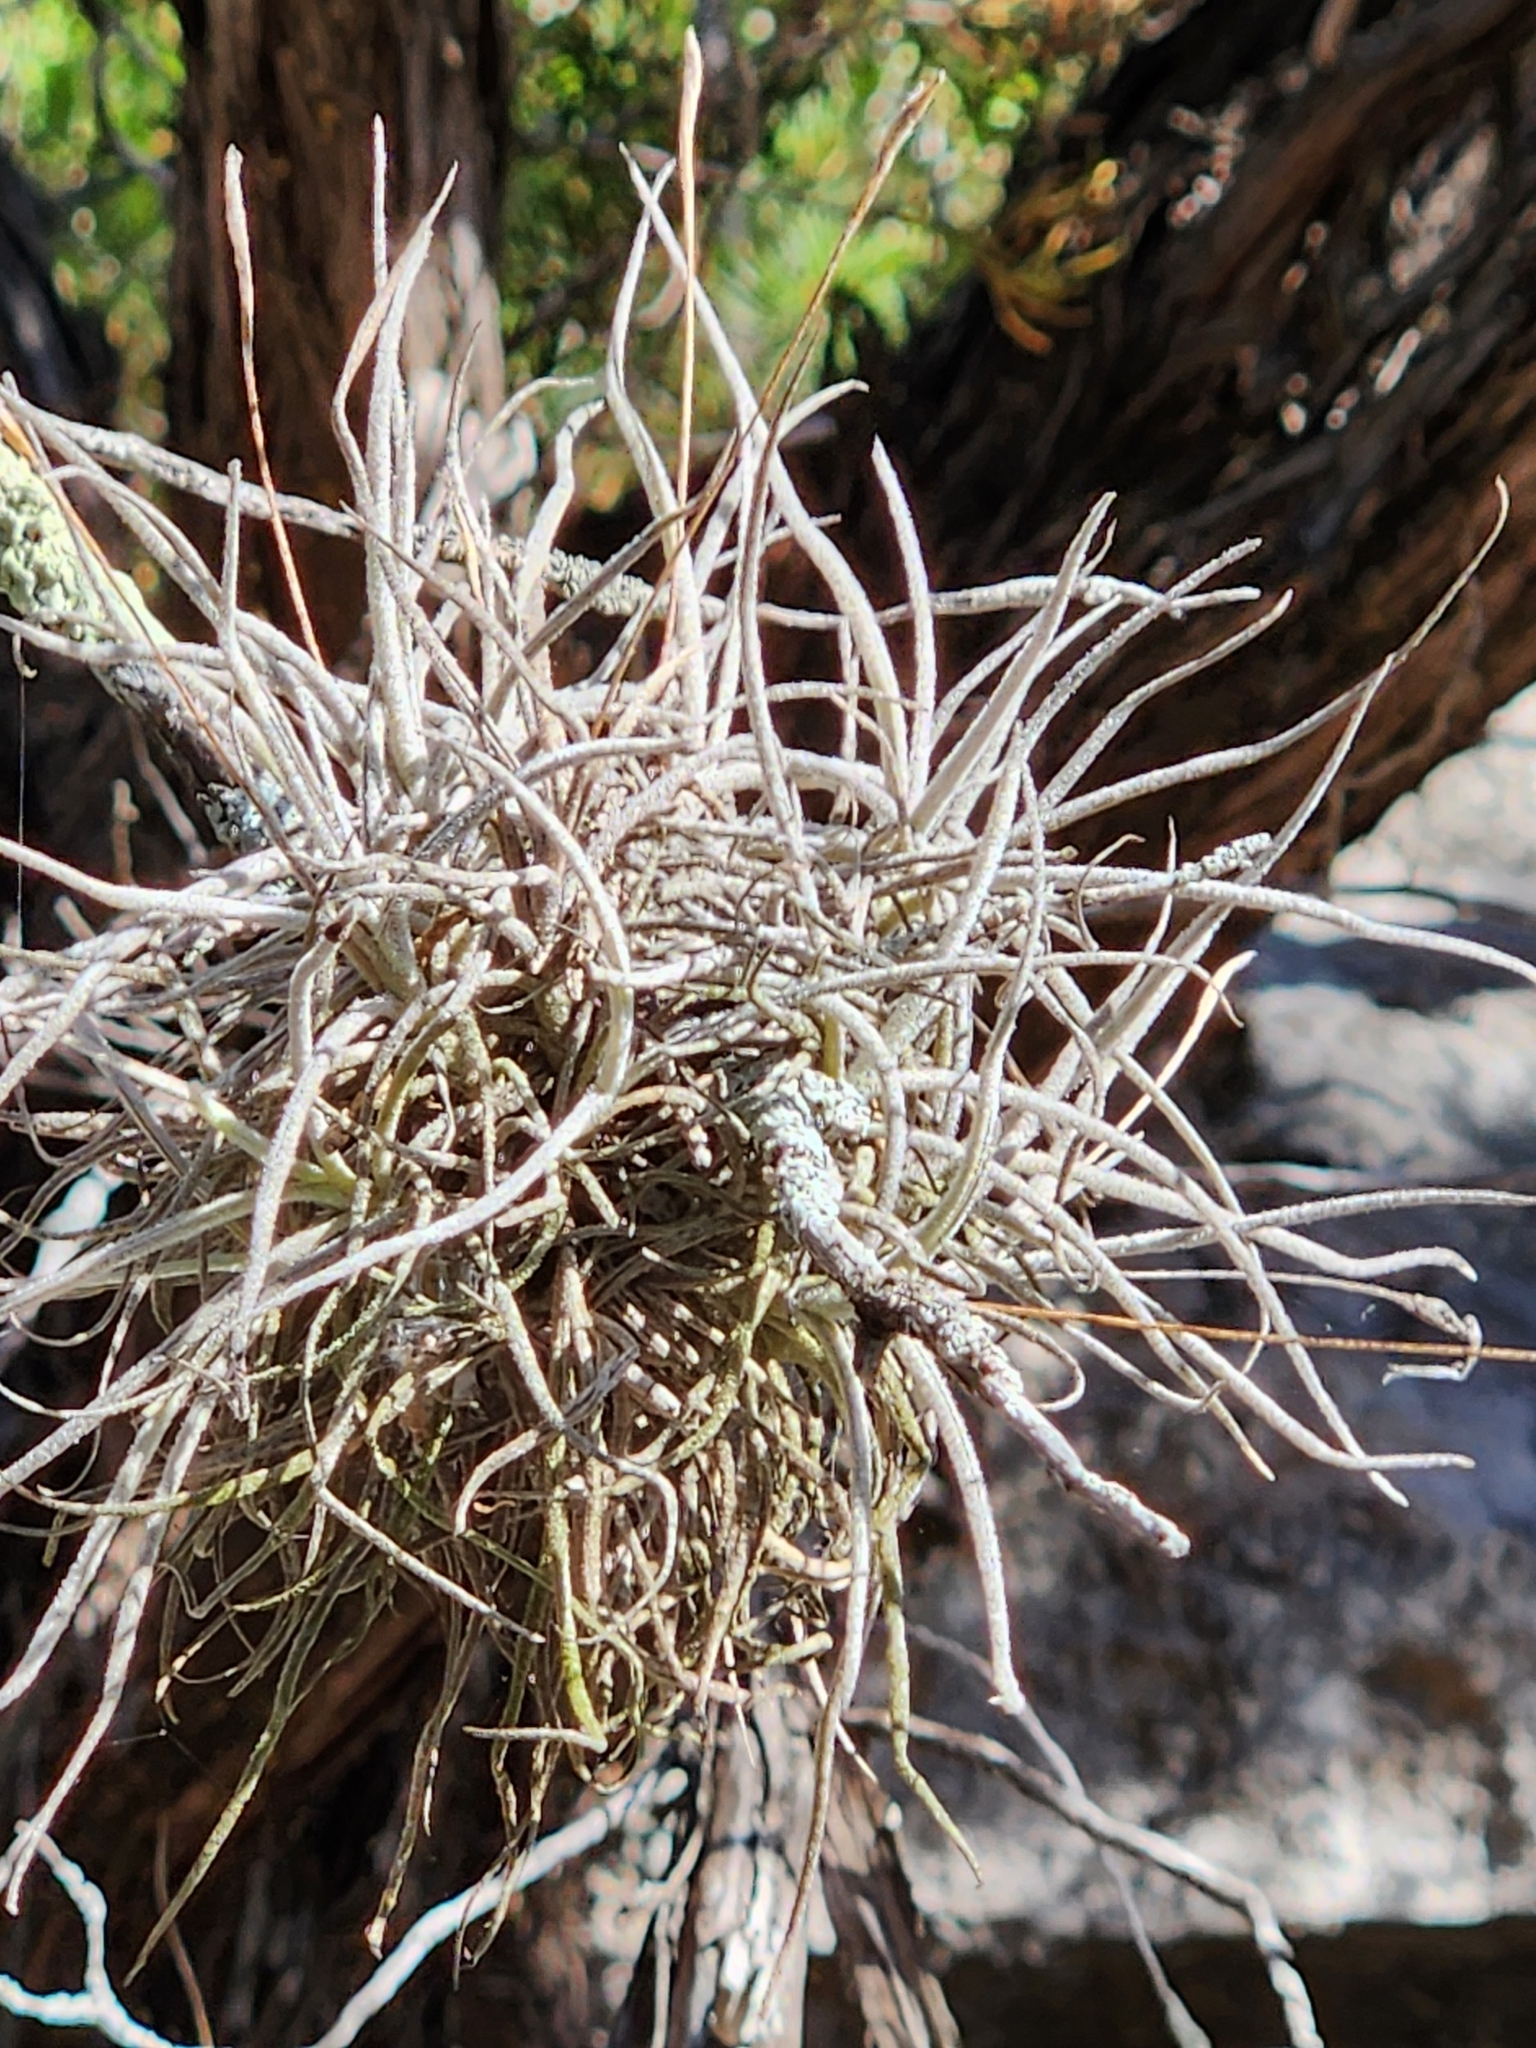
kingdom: Plantae
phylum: Tracheophyta
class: Liliopsida
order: Poales
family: Bromeliaceae
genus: Tillandsia
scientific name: Tillandsia recurvata
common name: Small ballmoss
